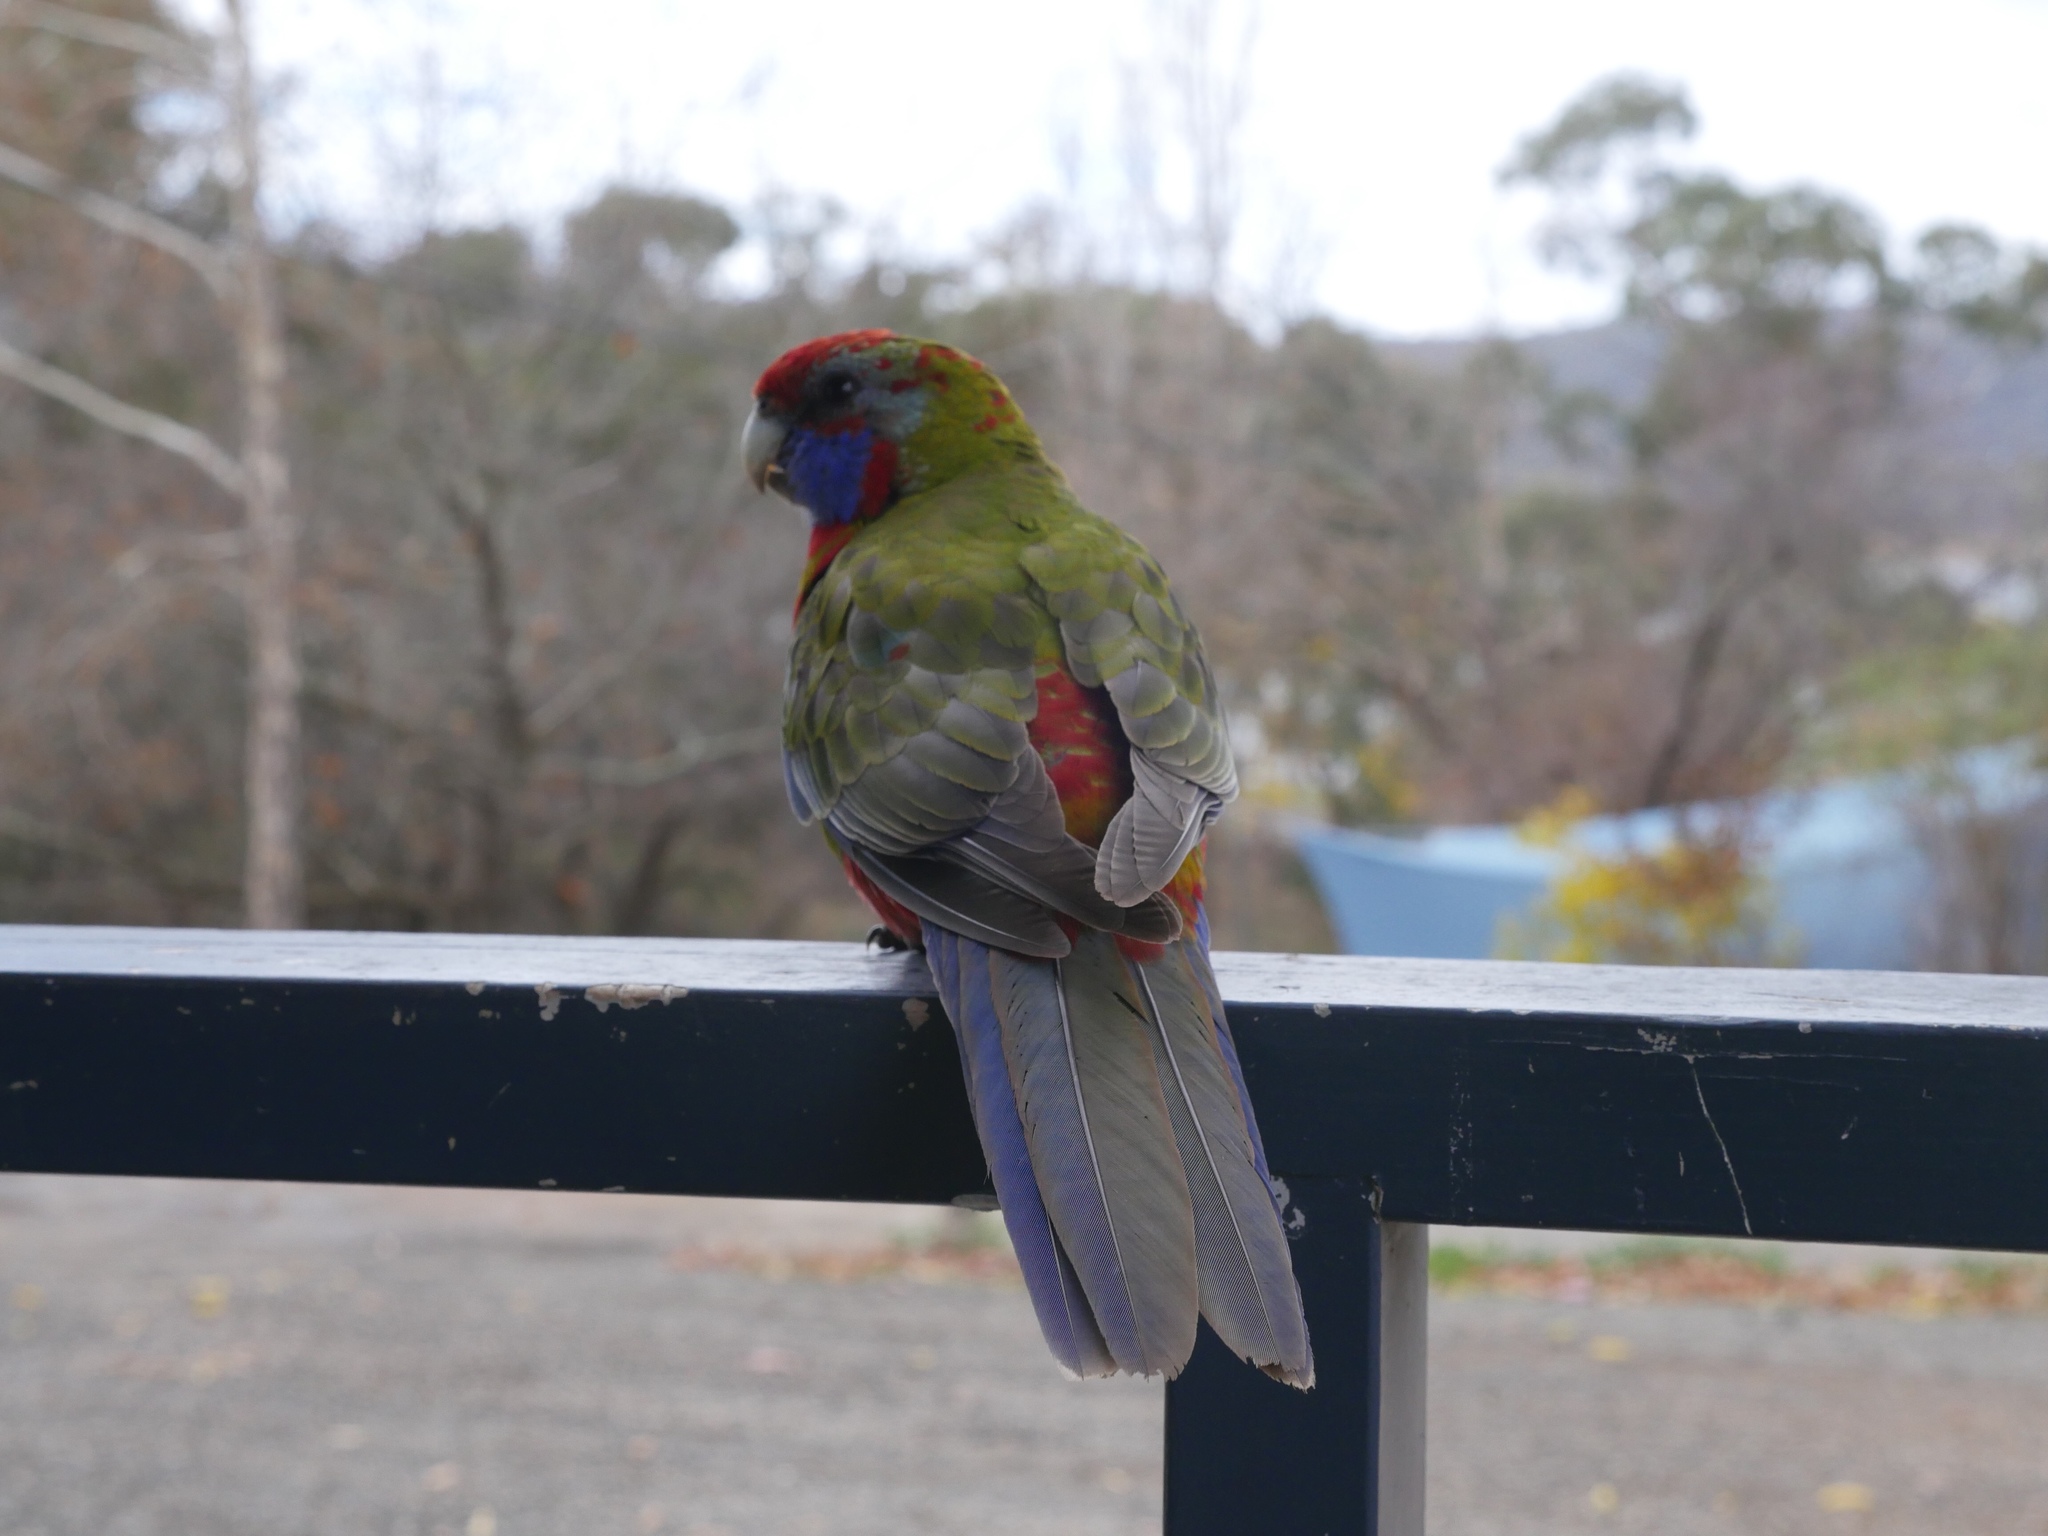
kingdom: Animalia
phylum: Chordata
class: Aves
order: Psittaciformes
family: Psittacidae
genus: Platycercus
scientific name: Platycercus elegans
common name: Crimson rosella
